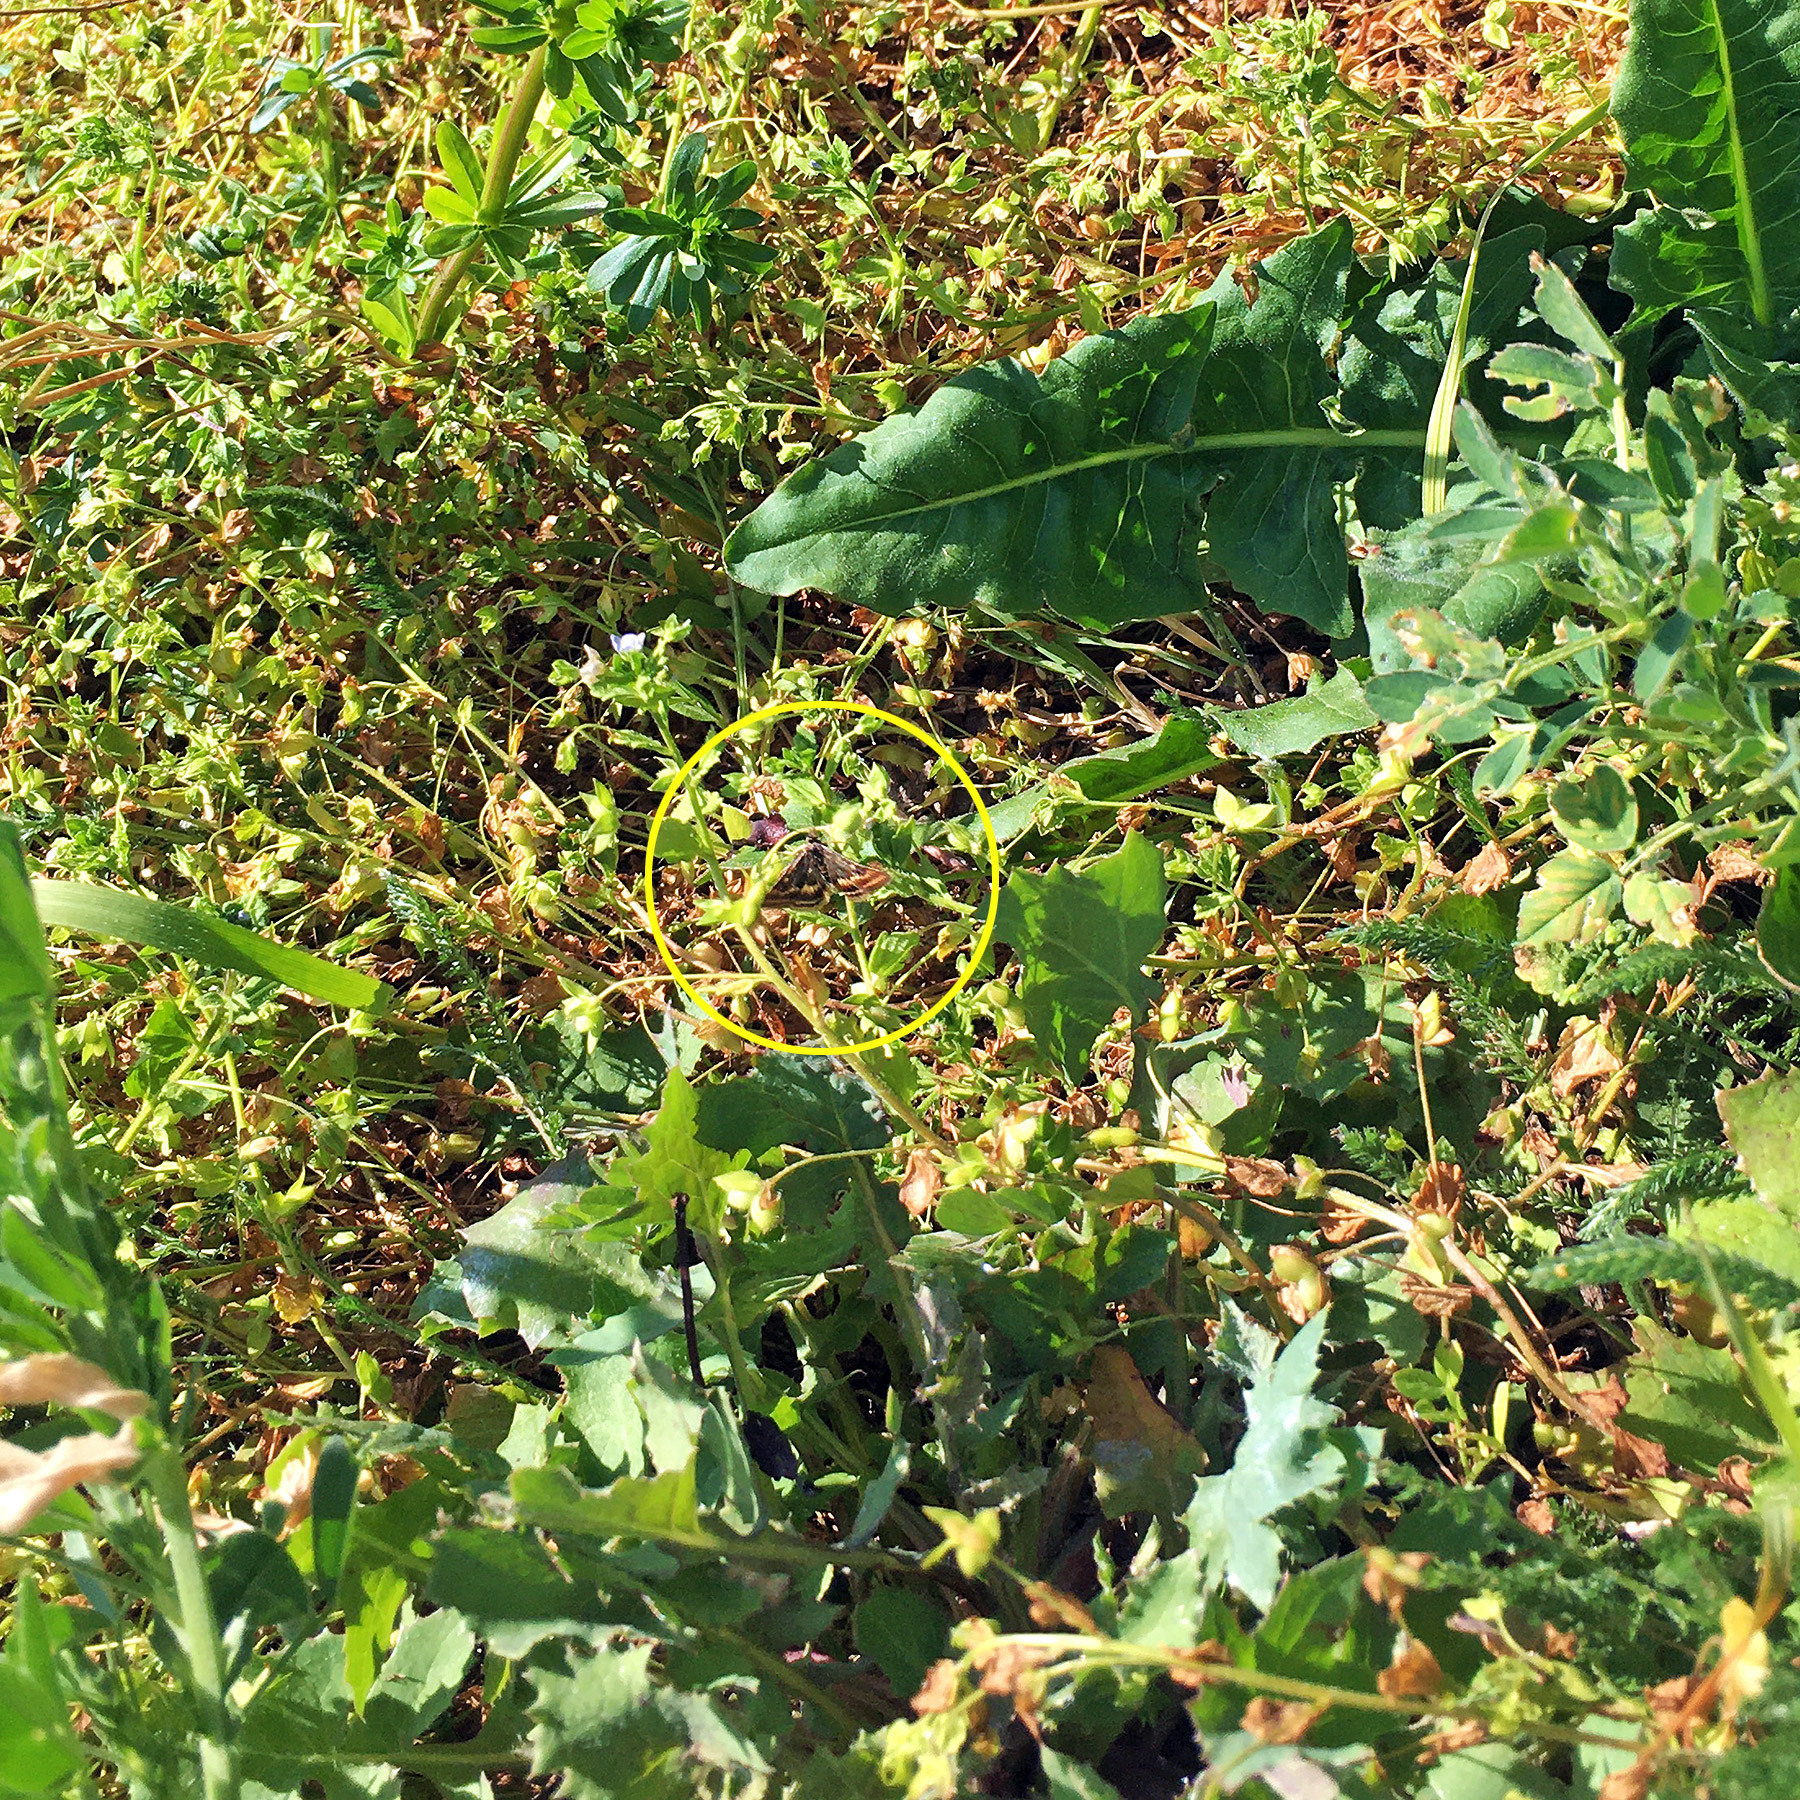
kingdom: Animalia
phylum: Arthropoda
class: Insecta
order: Lepidoptera
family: Crambidae
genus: Pyrausta
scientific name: Pyrausta despicata
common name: Straw-barred pearl
